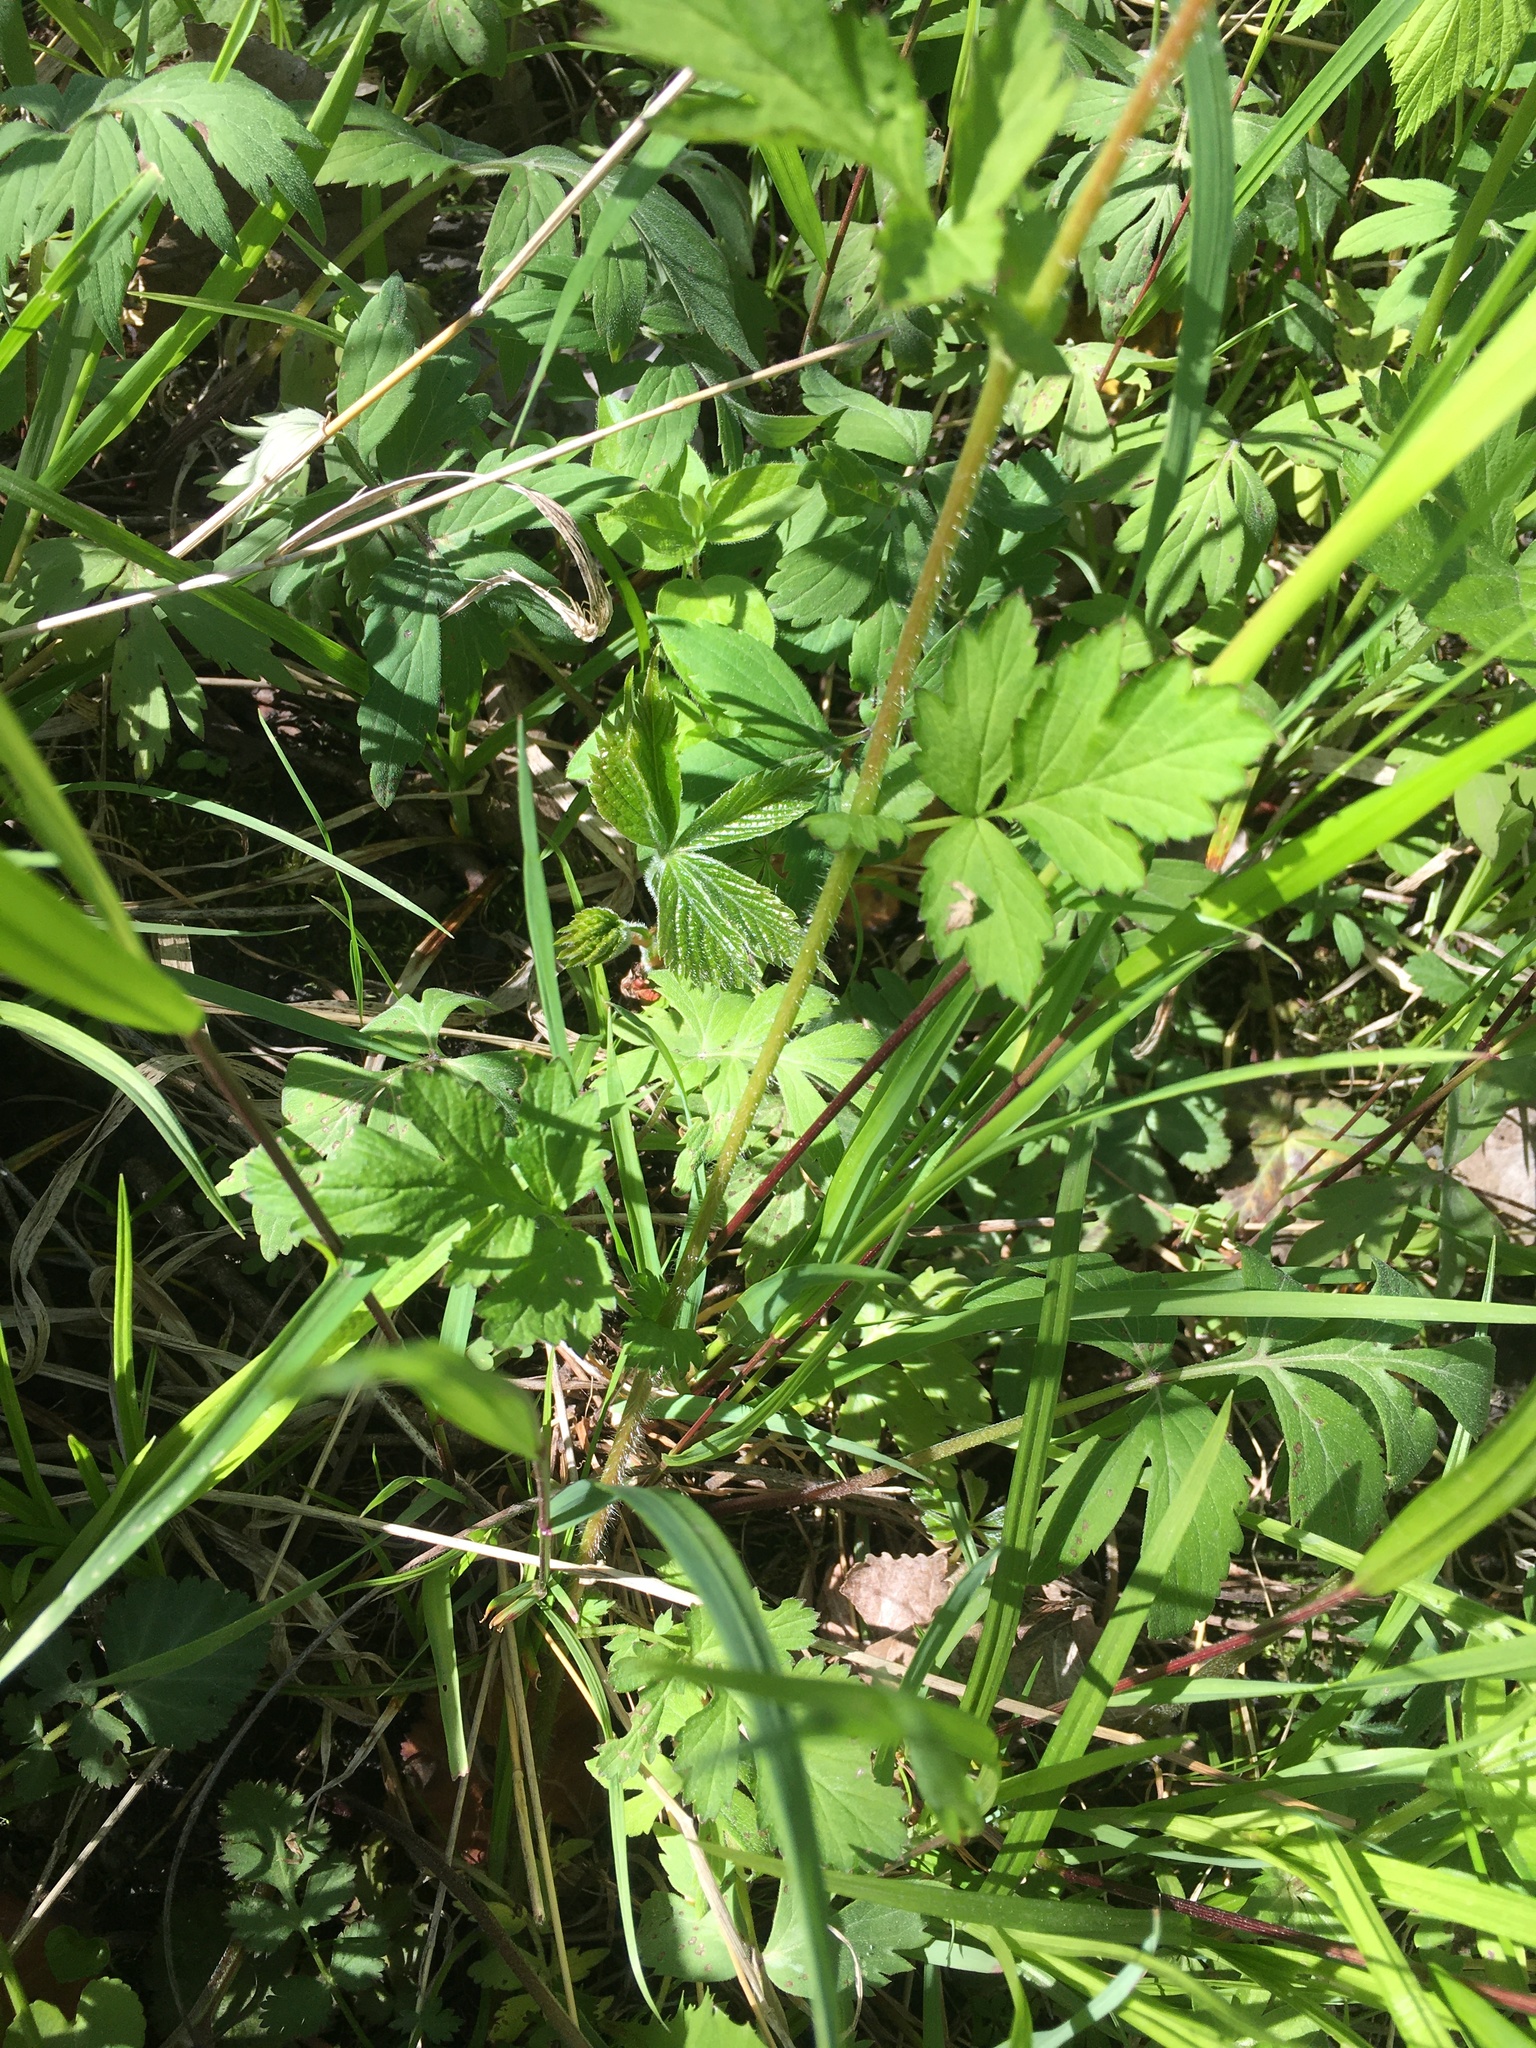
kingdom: Plantae
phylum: Tracheophyta
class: Magnoliopsida
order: Rosales
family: Rosaceae
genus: Geum
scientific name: Geum vernum
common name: Spring avens
